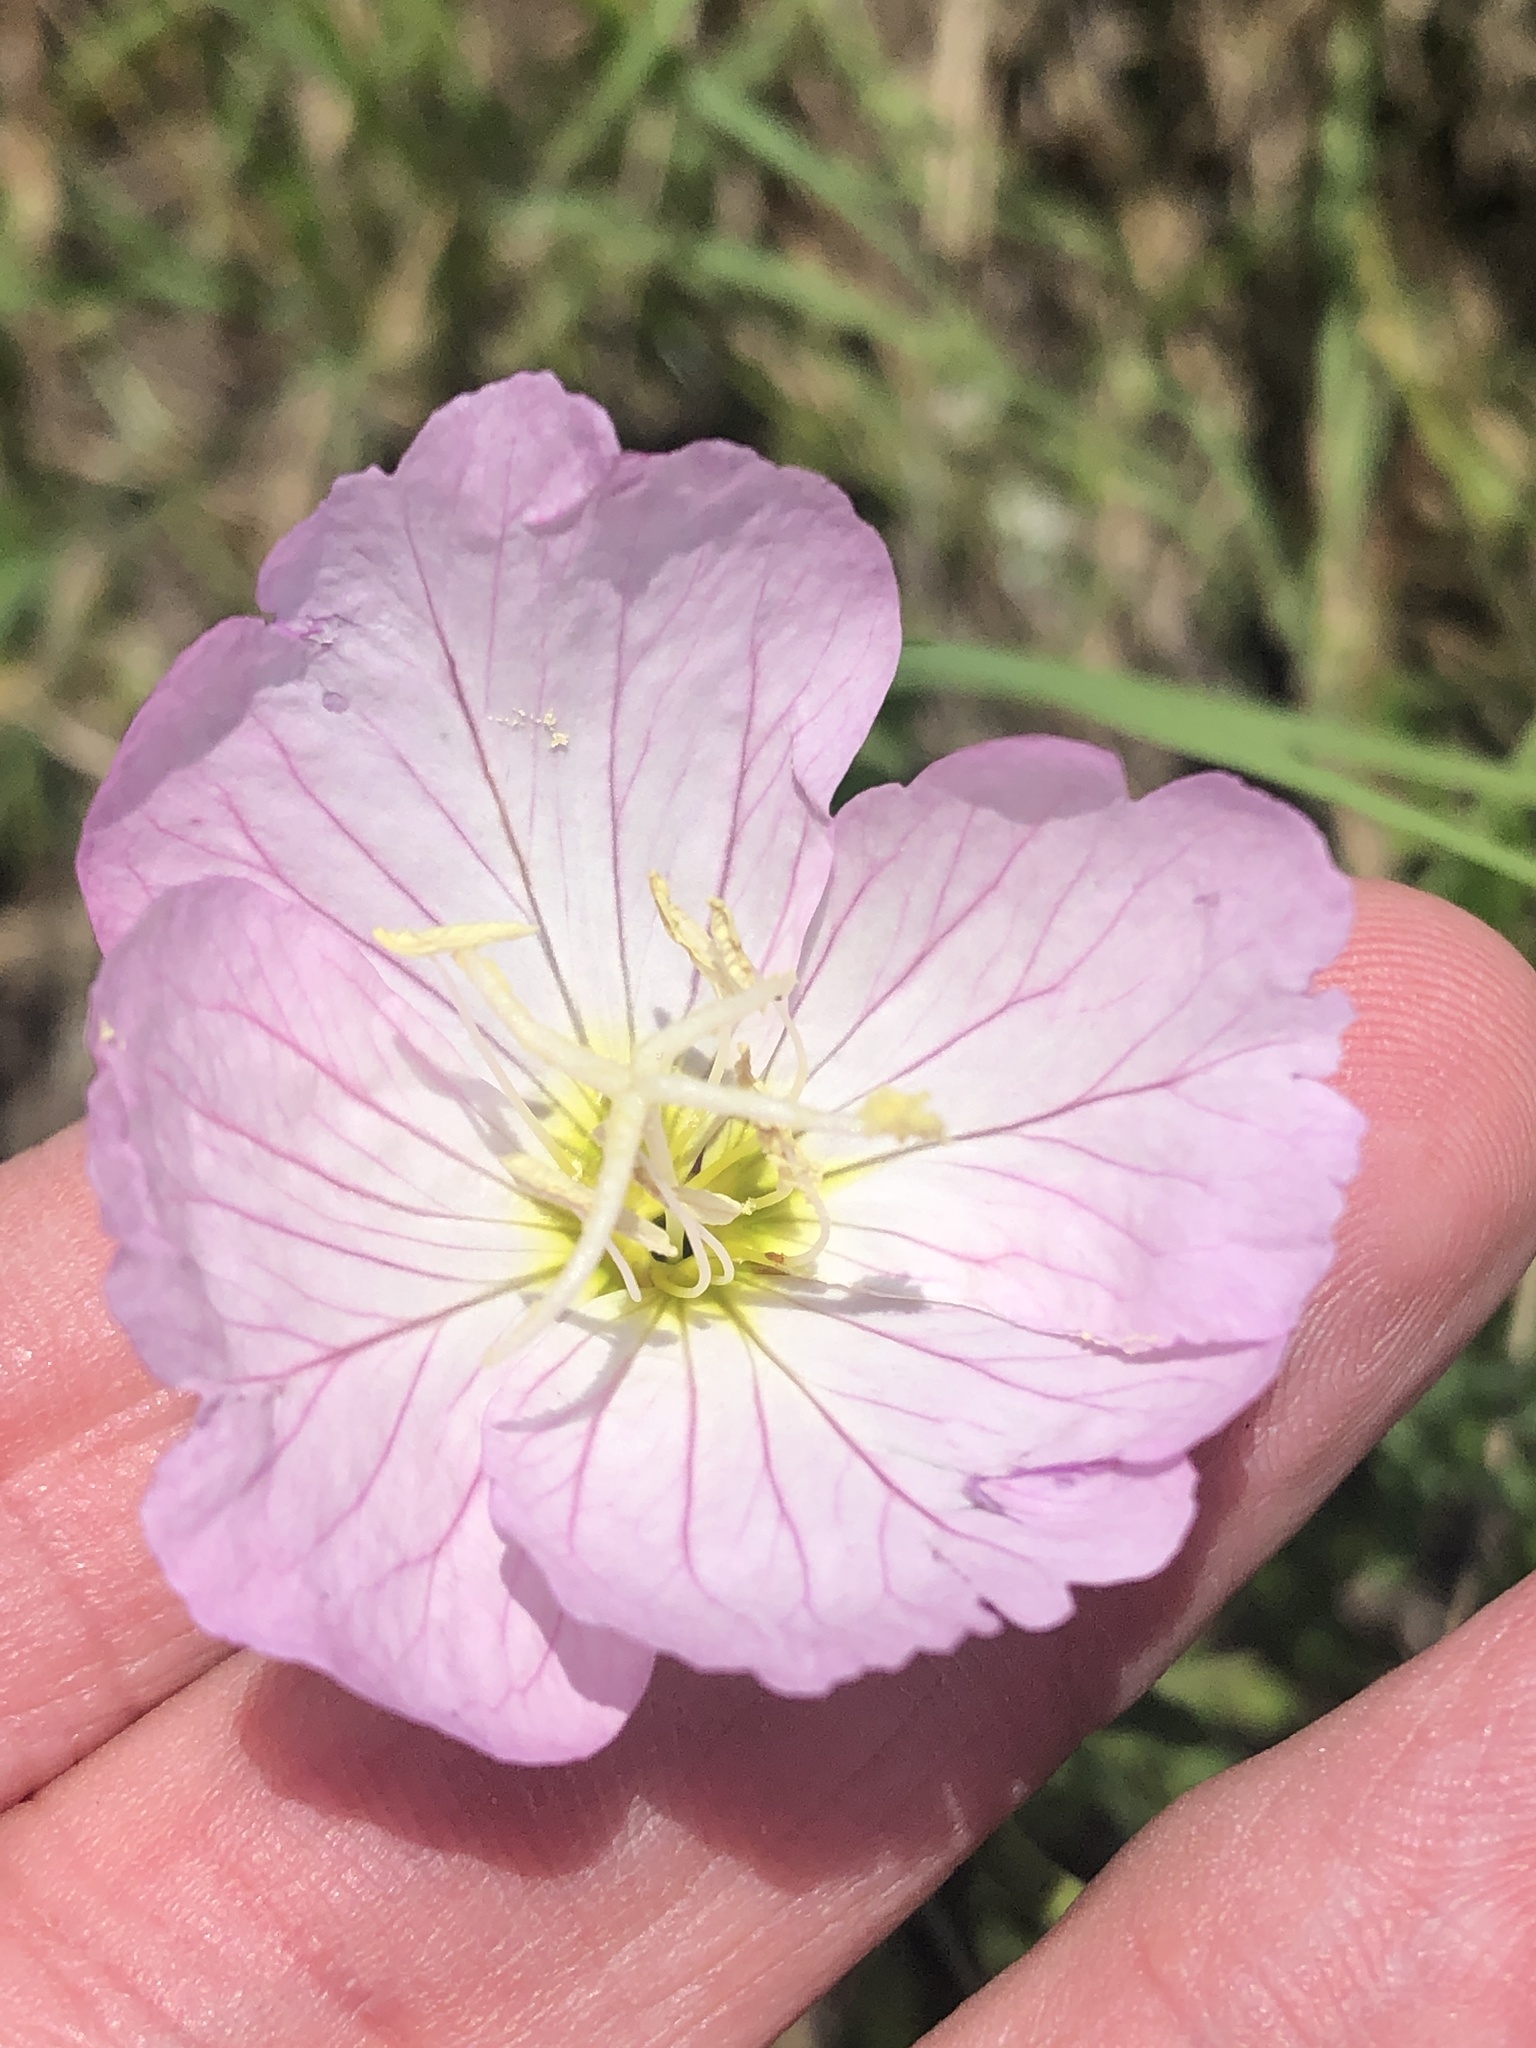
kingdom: Plantae
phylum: Tracheophyta
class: Magnoliopsida
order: Myrtales
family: Onagraceae
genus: Oenothera
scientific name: Oenothera speciosa
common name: White evening-primrose
